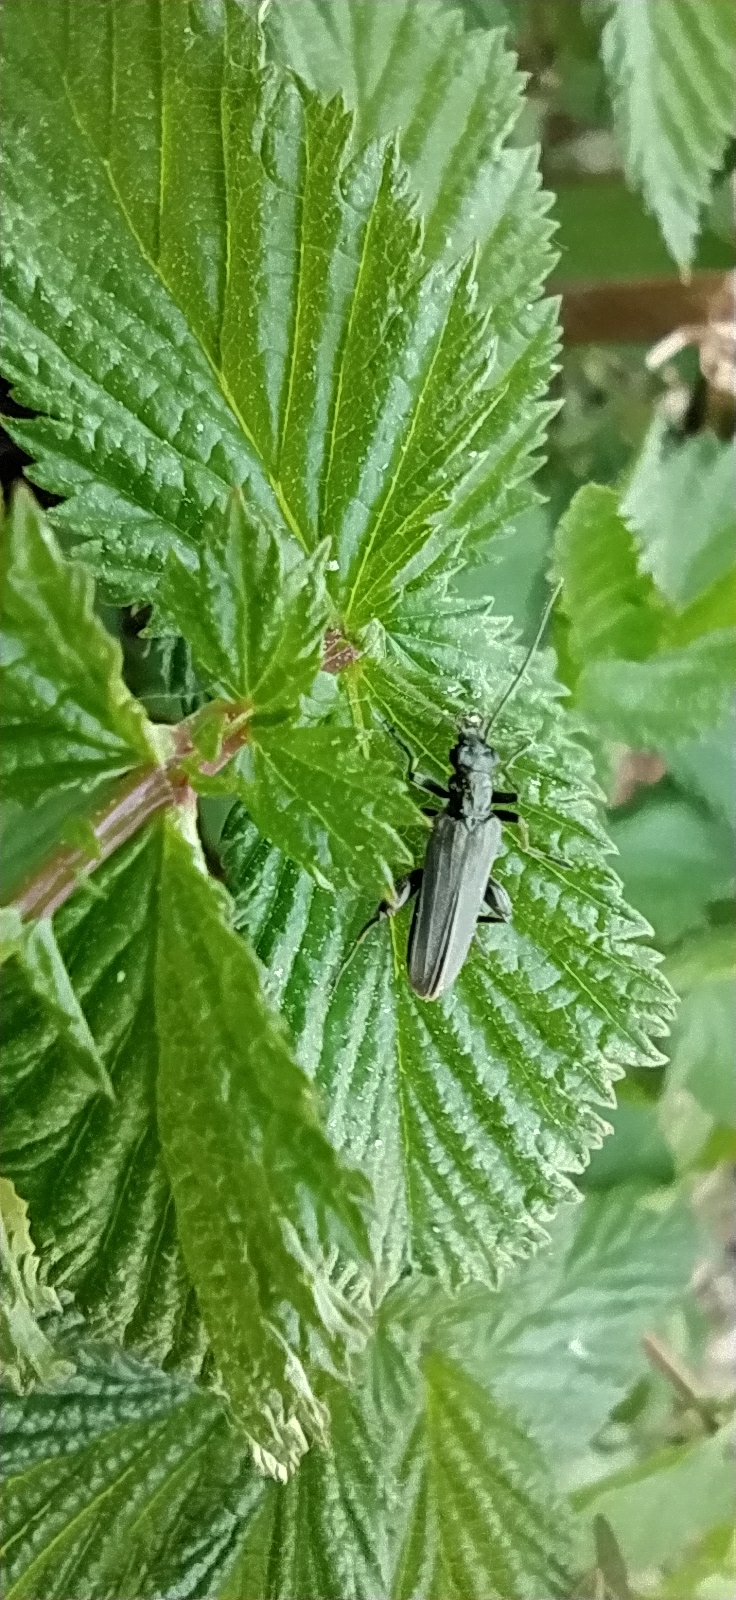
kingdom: Animalia
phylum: Arthropoda
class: Insecta
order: Coleoptera
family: Oedemeridae
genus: Oedemera
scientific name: Oedemera virescens
